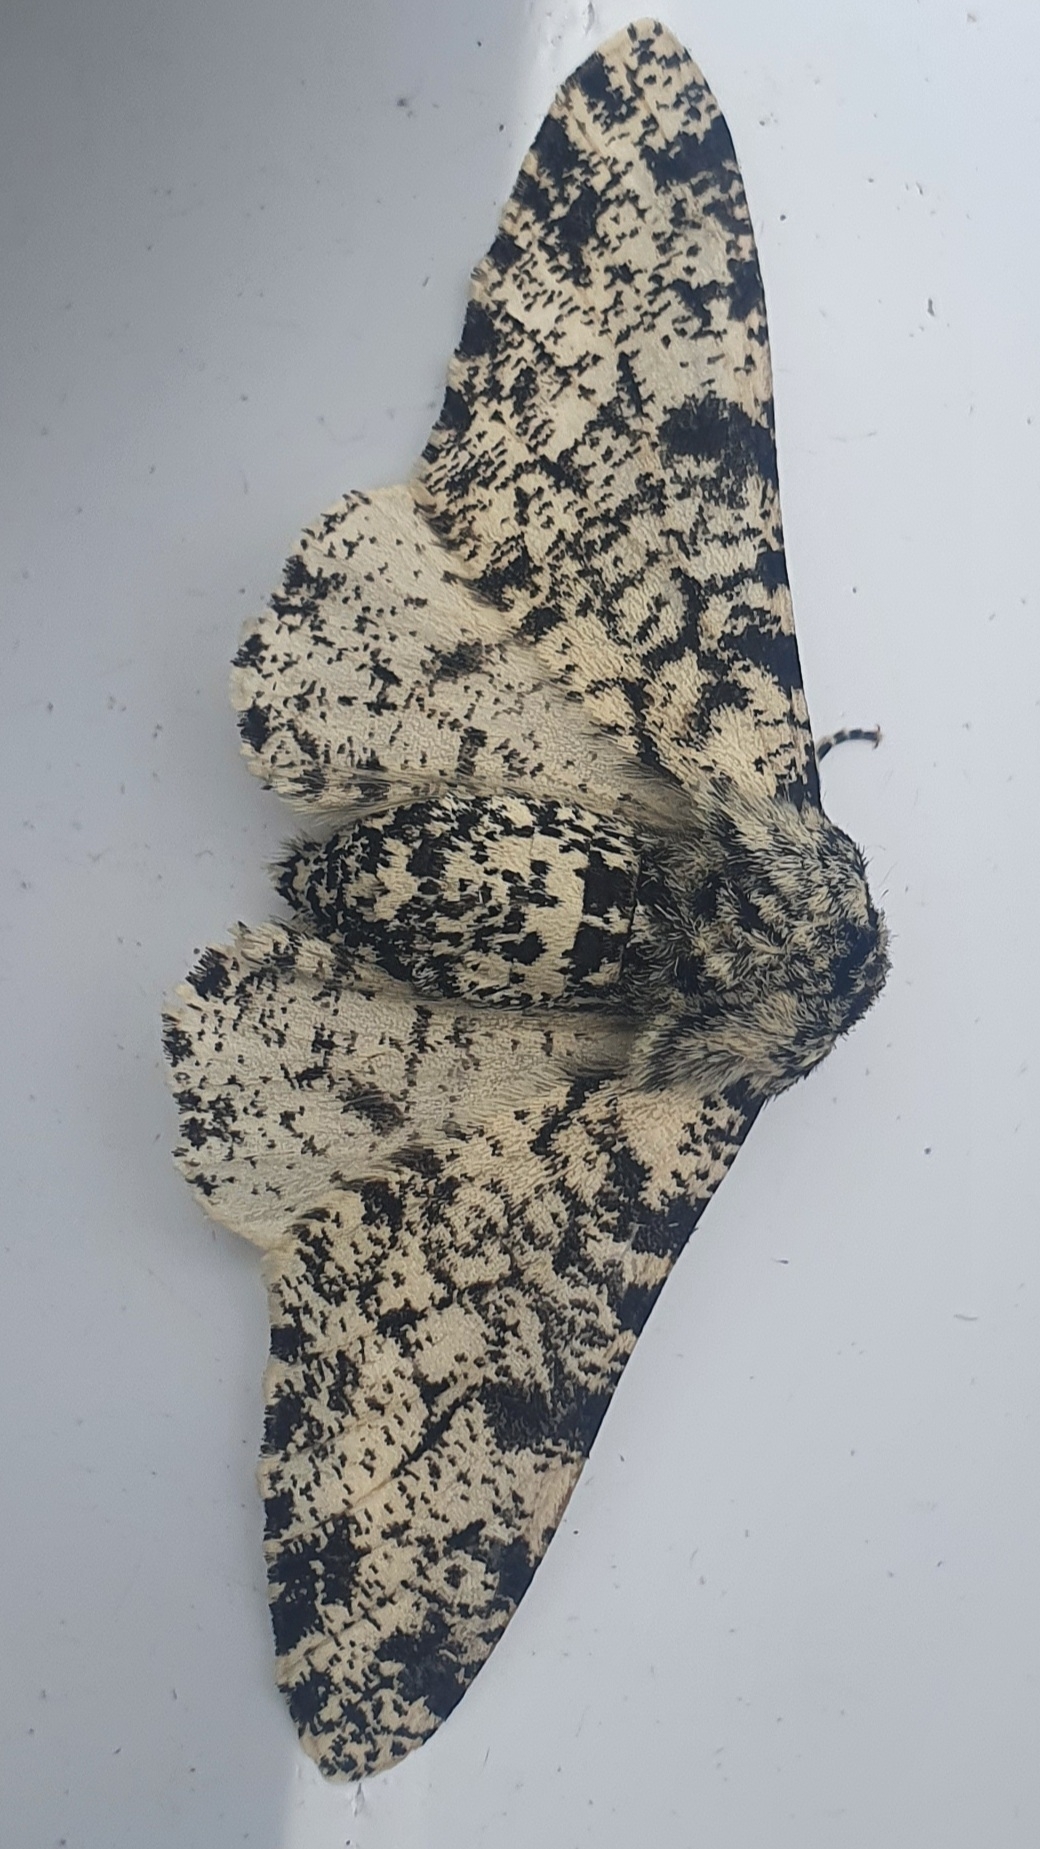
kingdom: Animalia
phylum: Arthropoda
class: Insecta
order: Lepidoptera
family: Geometridae
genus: Biston
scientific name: Biston betularia
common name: Peppered moth
